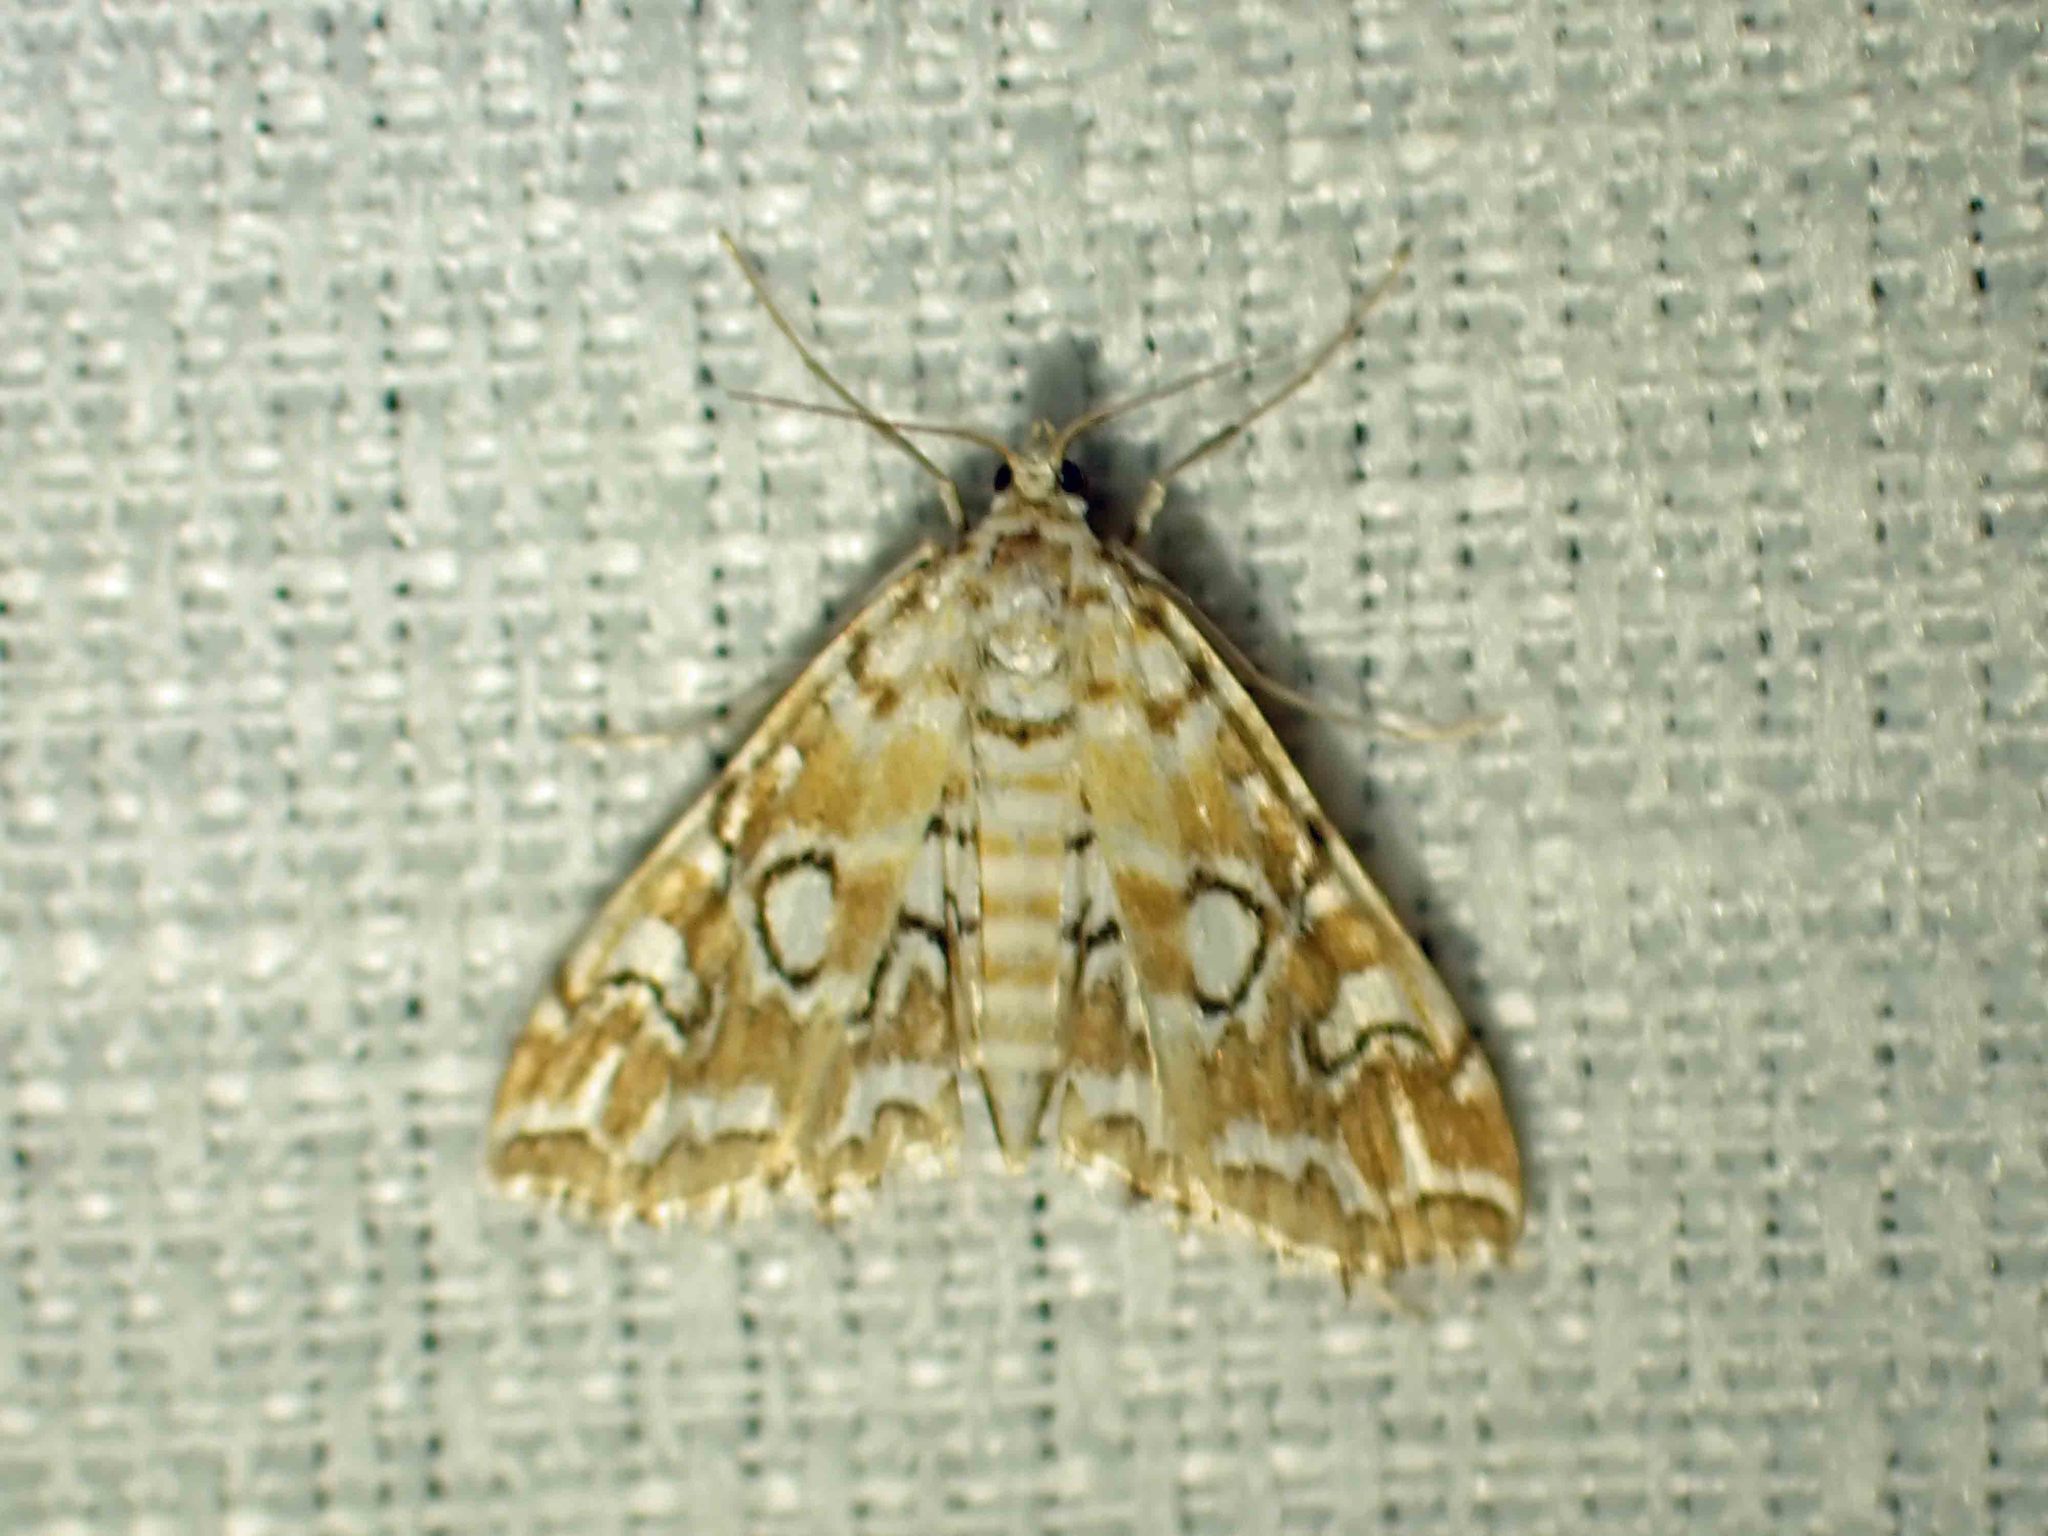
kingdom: Animalia
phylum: Arthropoda
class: Insecta
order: Lepidoptera
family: Crambidae
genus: Elophila
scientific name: Elophila icciusalis
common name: Pondside pyralid moth
